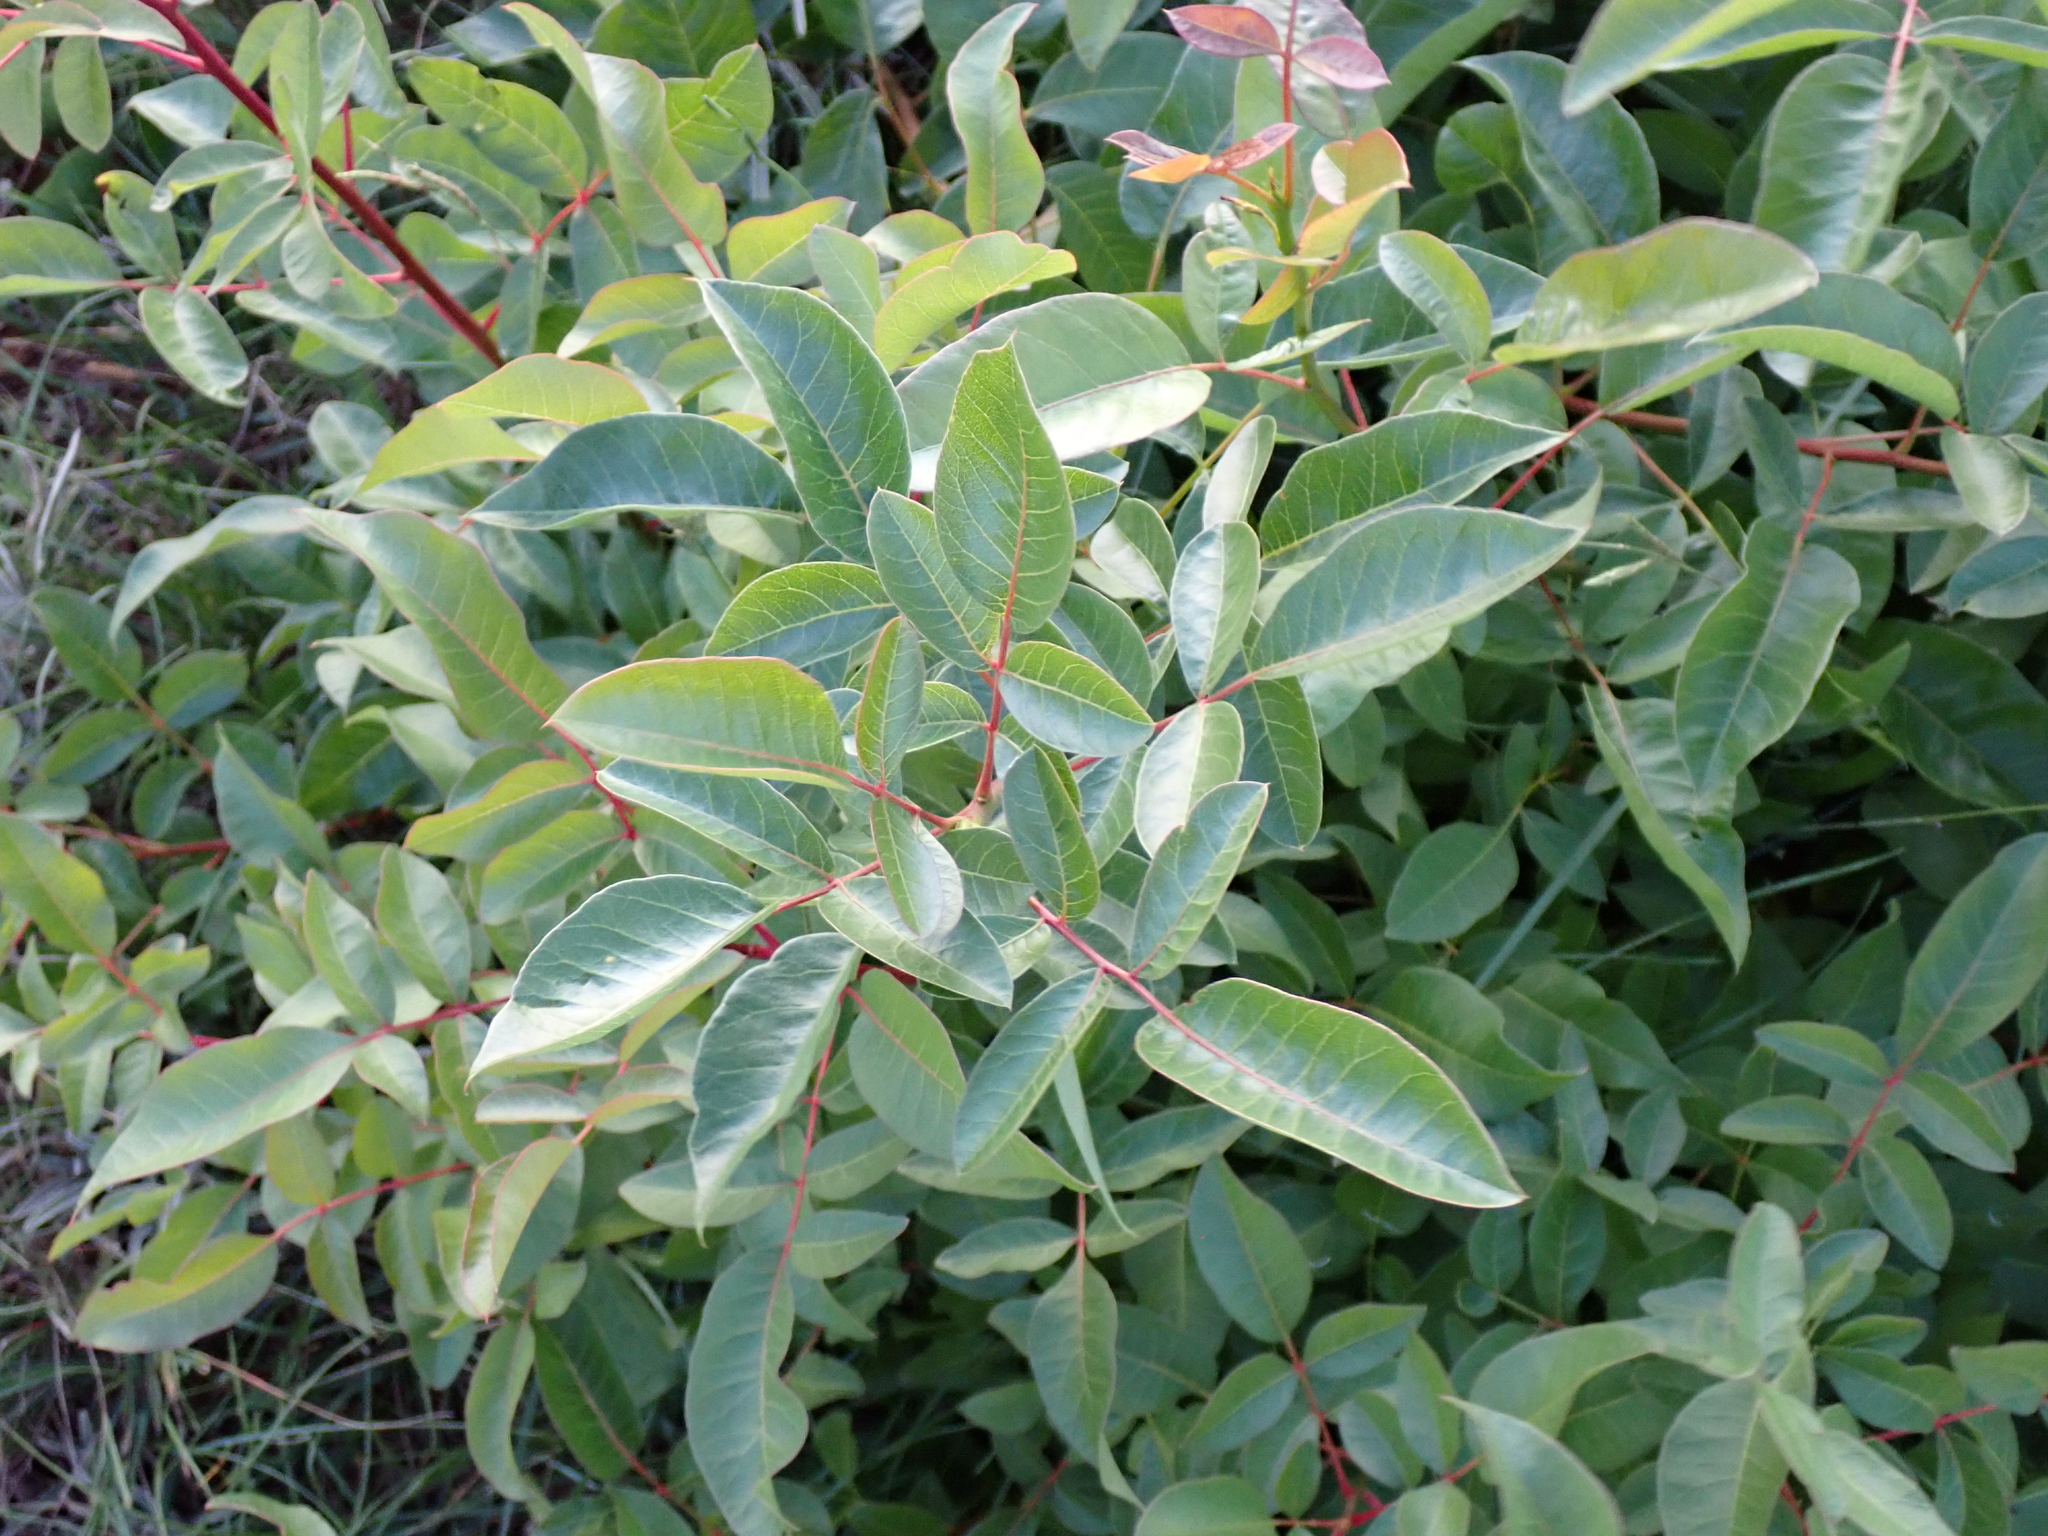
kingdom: Plantae
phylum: Tracheophyta
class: Magnoliopsida
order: Sapindales
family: Anacardiaceae
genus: Pistacia
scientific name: Pistacia terebinthus
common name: Terebinth
